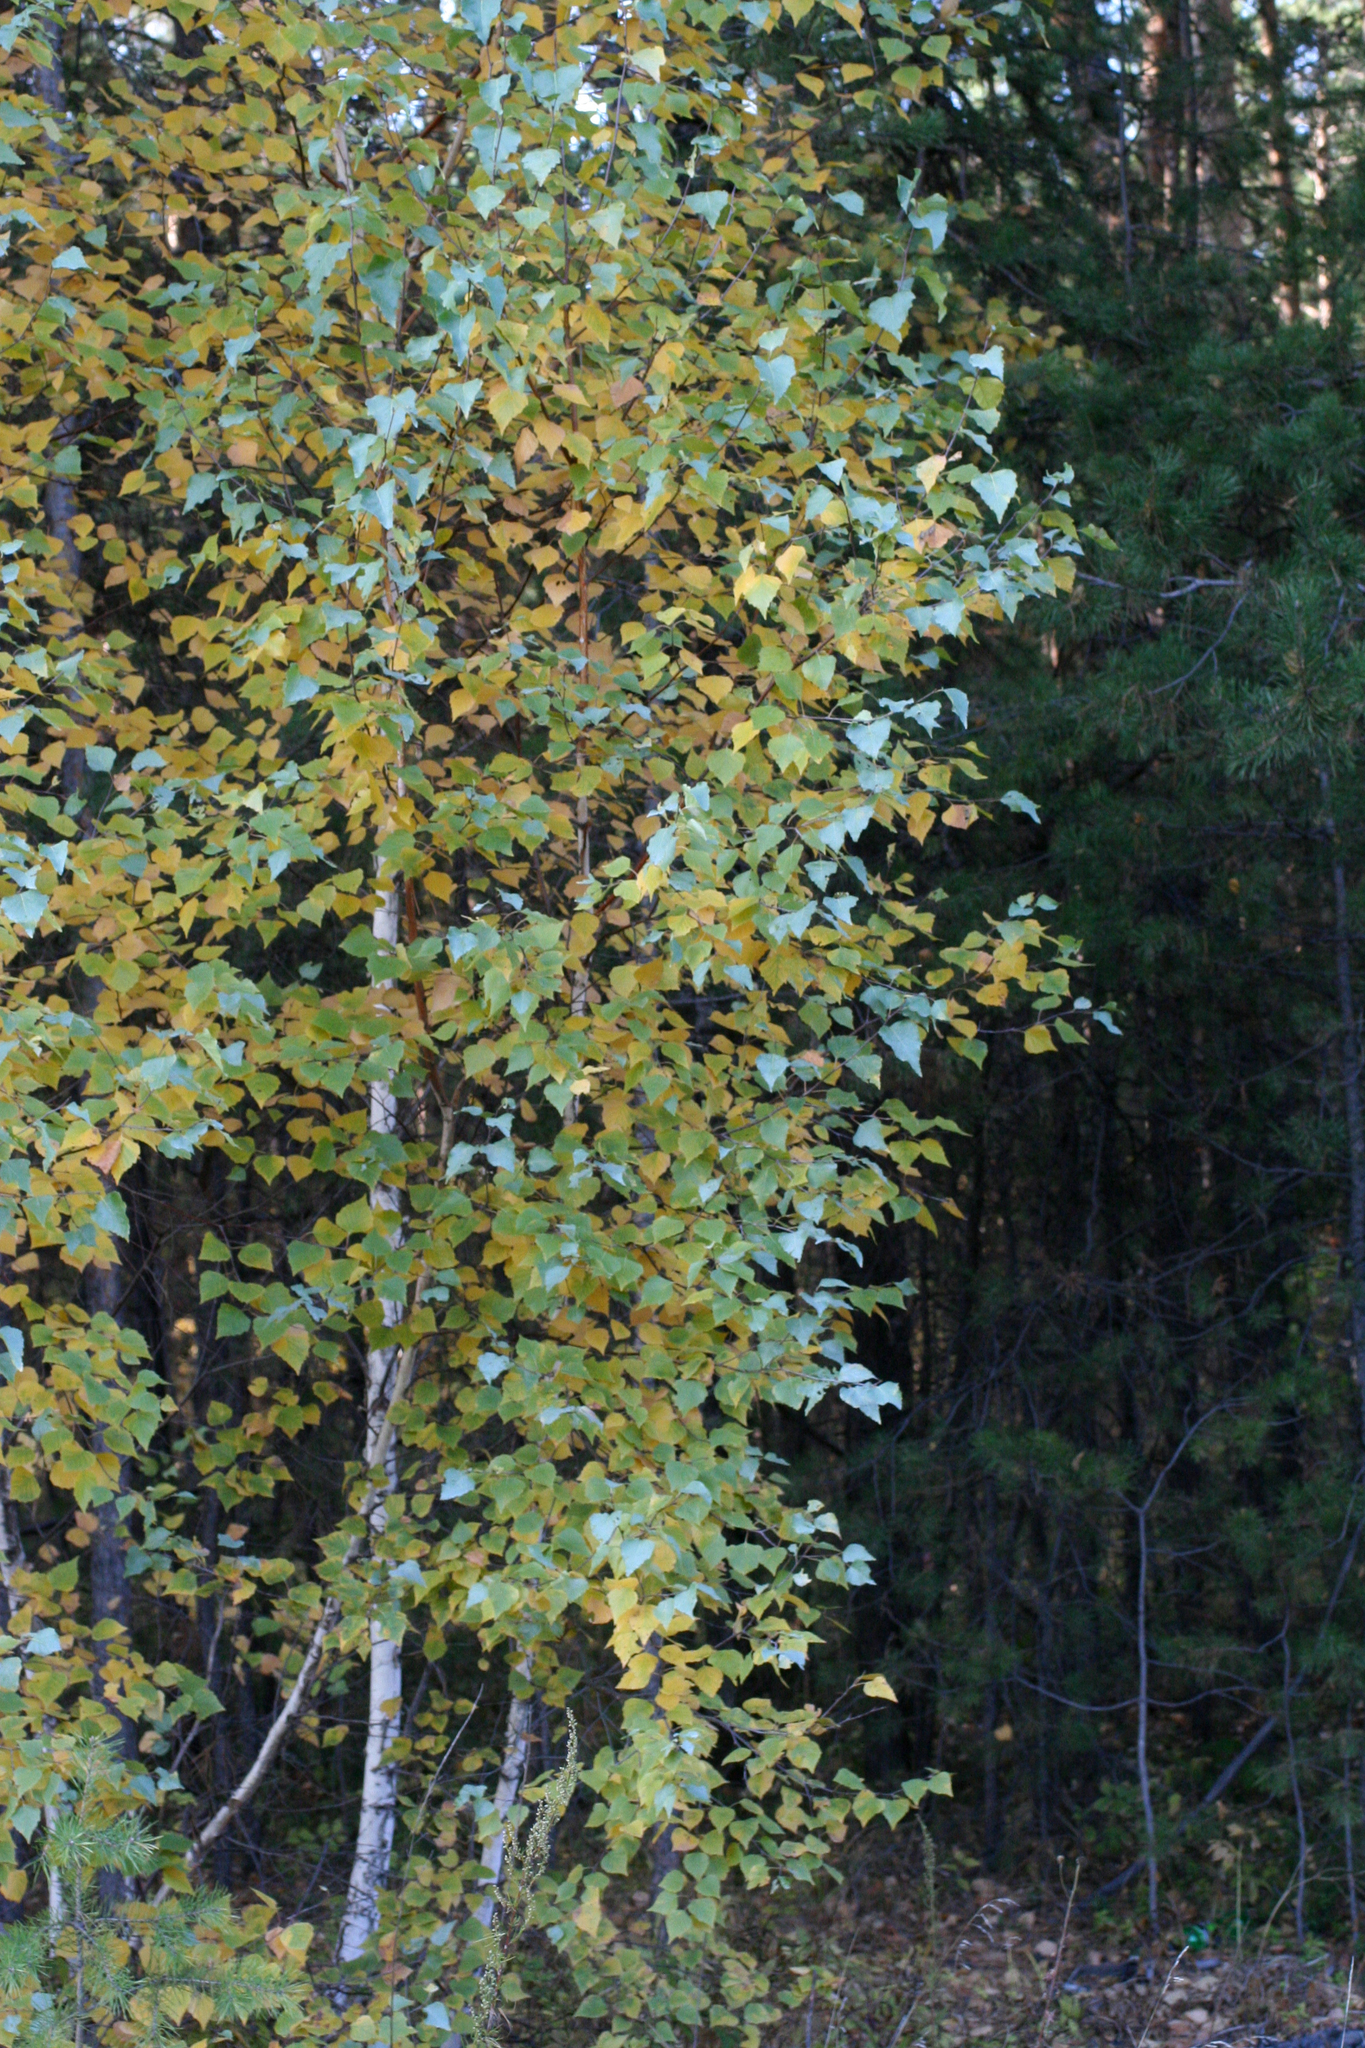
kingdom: Plantae
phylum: Tracheophyta
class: Magnoliopsida
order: Fagales
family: Betulaceae
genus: Betula
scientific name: Betula pendula
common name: Silver birch
